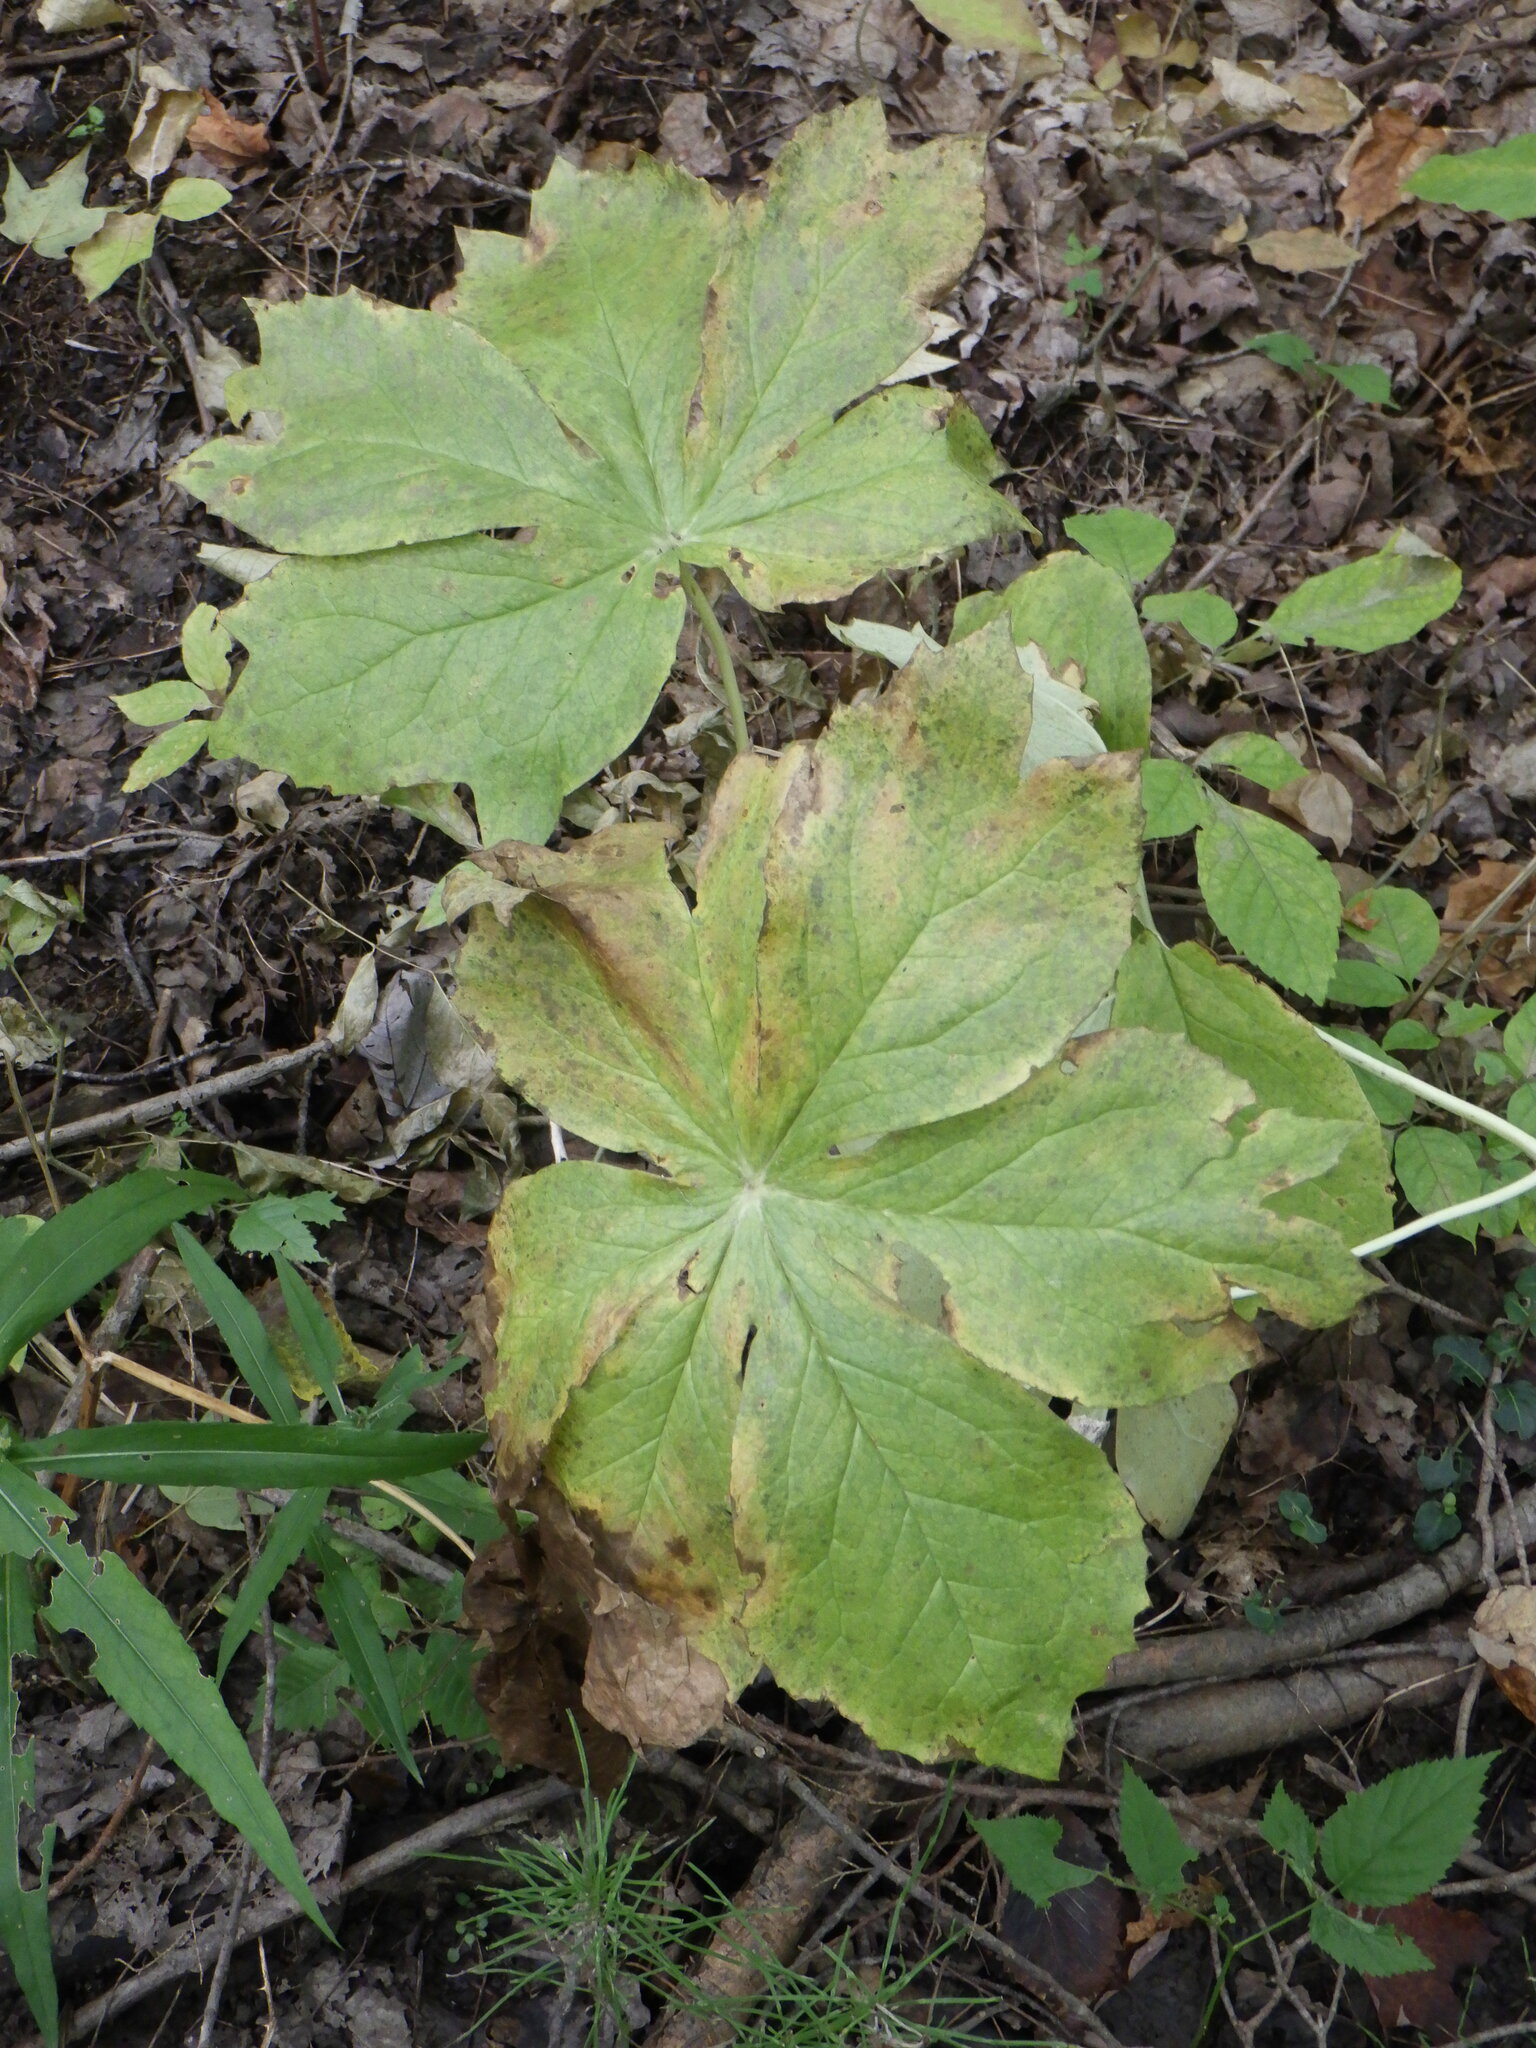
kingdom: Plantae
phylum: Tracheophyta
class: Magnoliopsida
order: Ranunculales
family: Berberidaceae
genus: Podophyllum
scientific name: Podophyllum peltatum
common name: Wild mandrake
